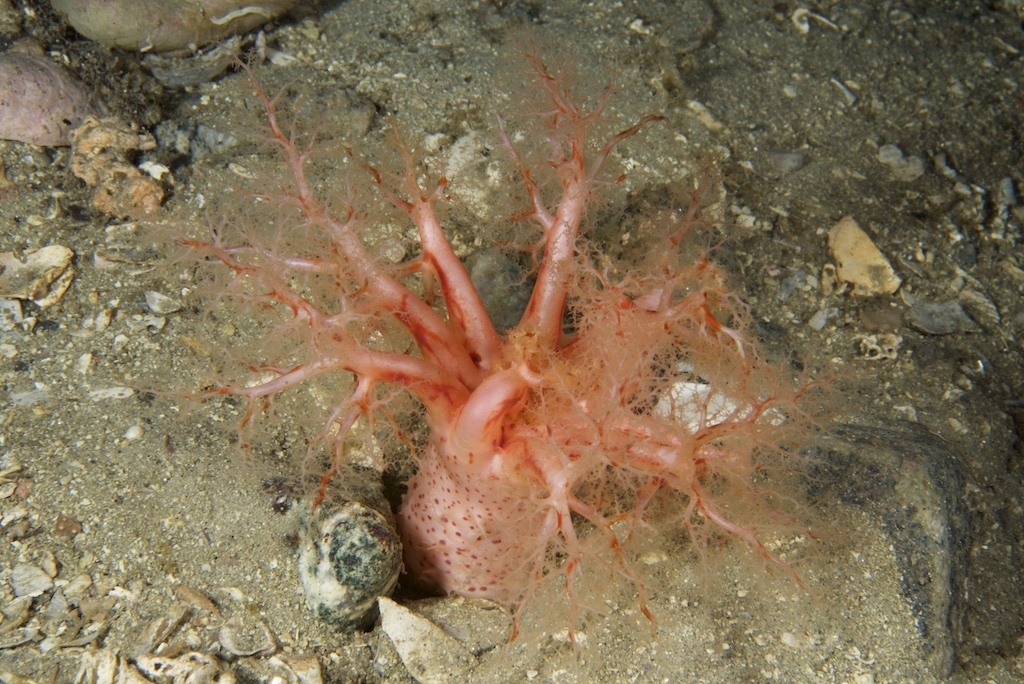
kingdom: Animalia
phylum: Echinodermata
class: Holothuroidea
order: Dendrochirotida
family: Psolidae
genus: Psolus
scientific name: Psolus phantapus
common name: Brown psolus
